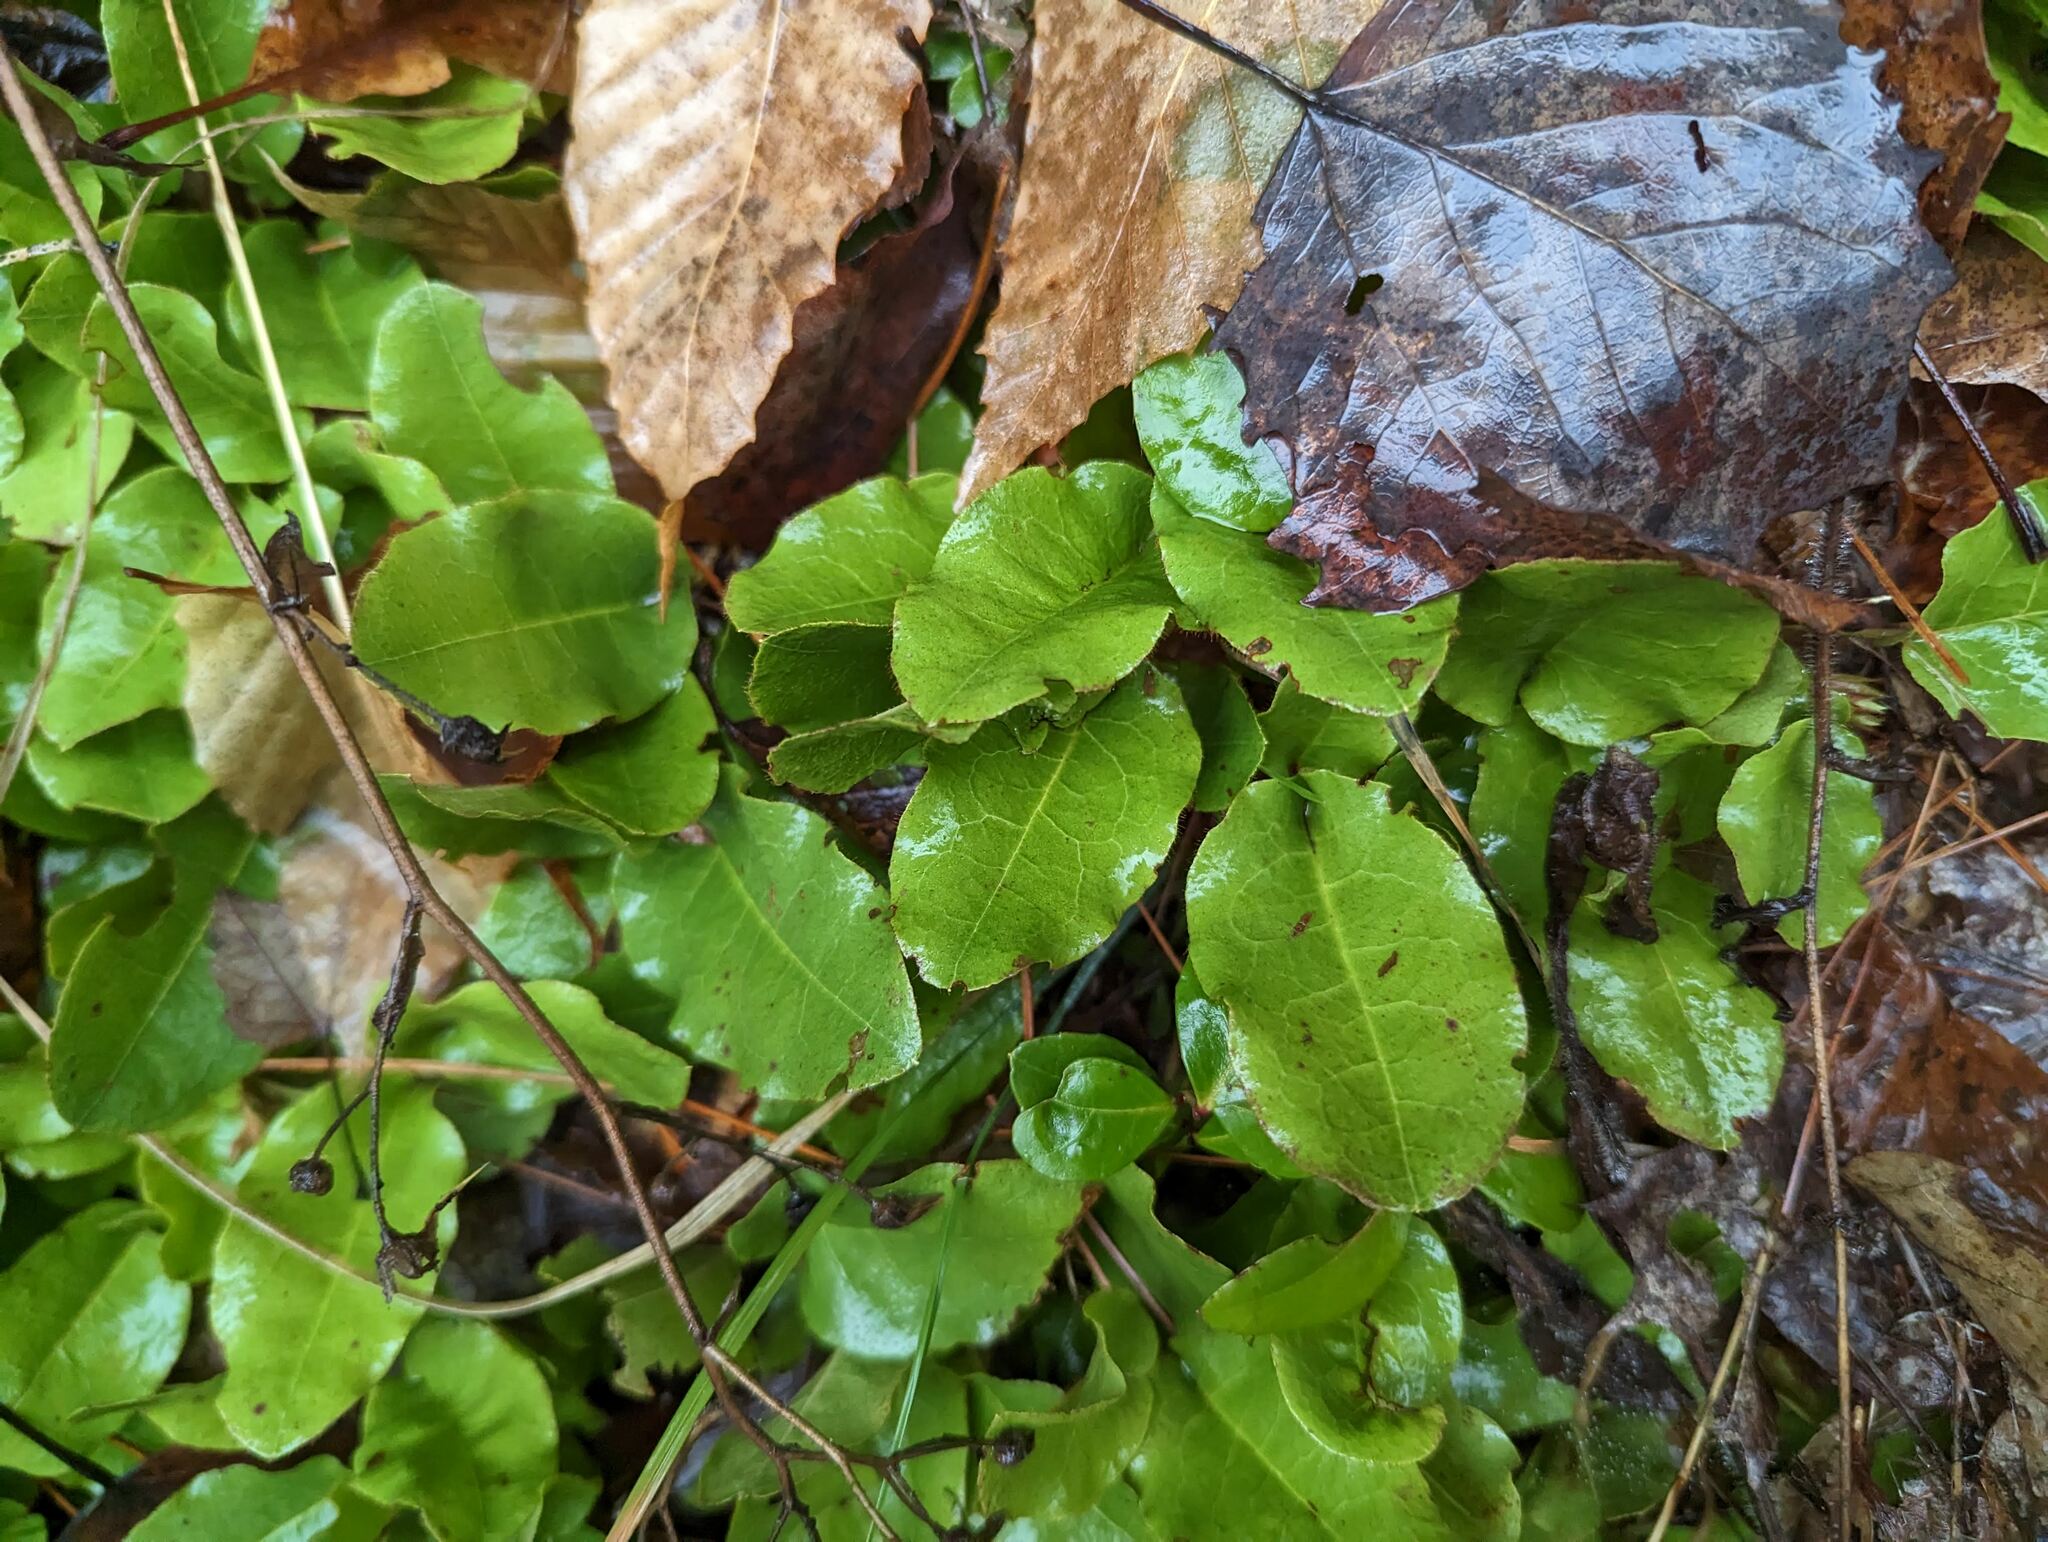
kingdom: Plantae
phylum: Tracheophyta
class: Magnoliopsida
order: Ericales
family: Ericaceae
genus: Epigaea
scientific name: Epigaea repens
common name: Gravelroot
